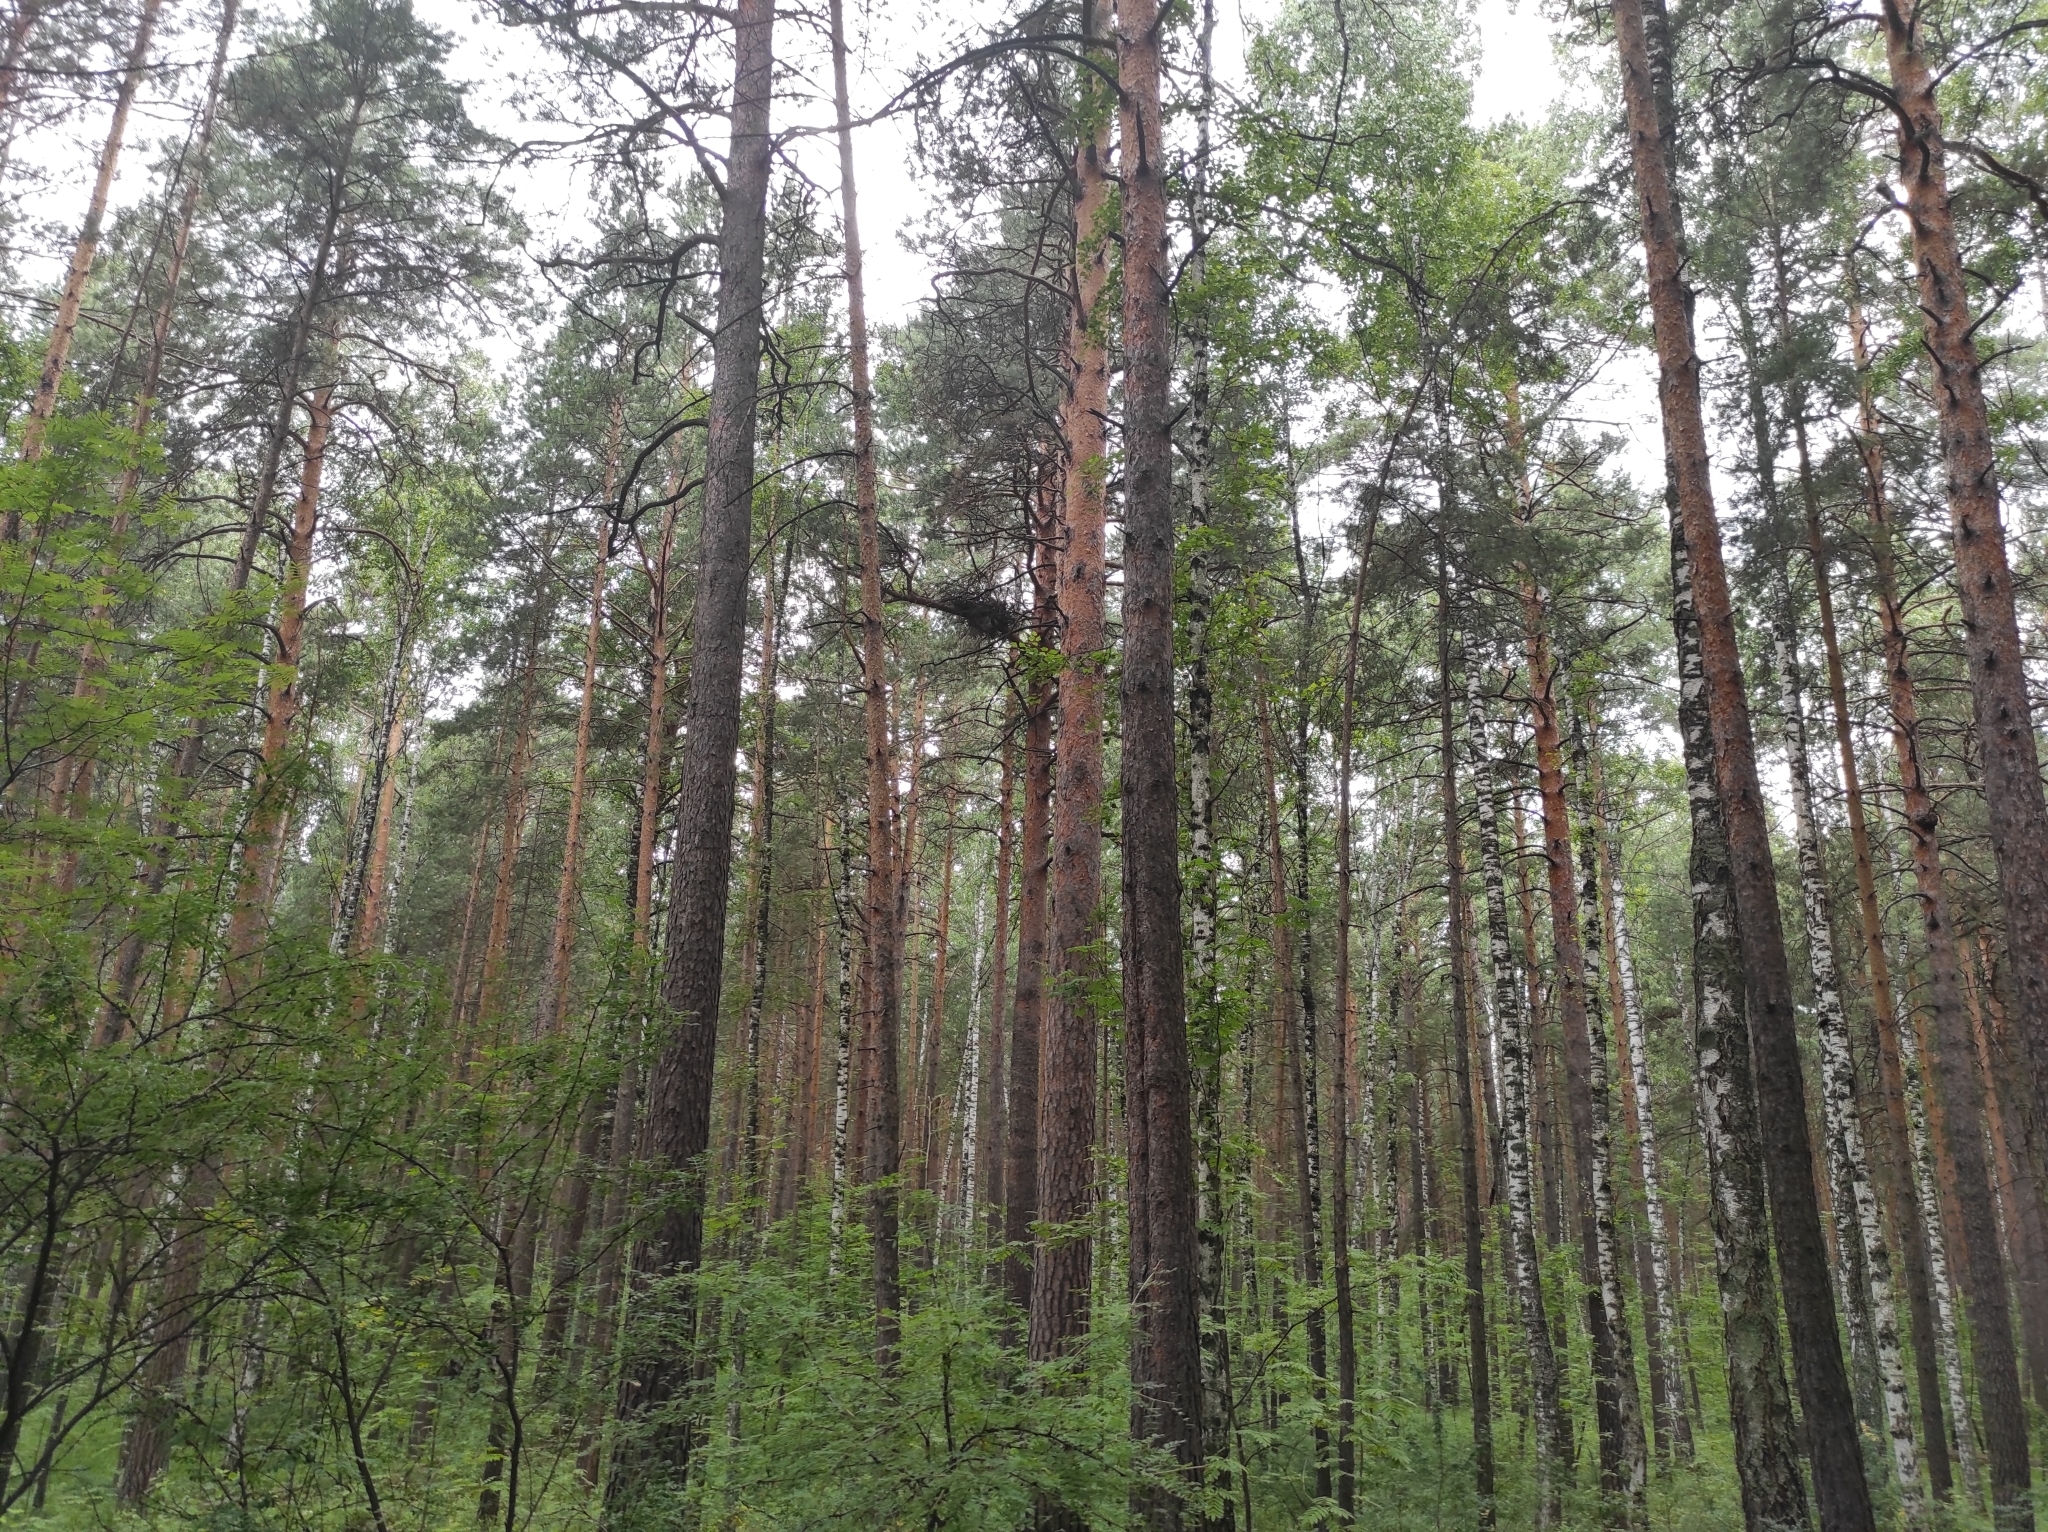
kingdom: Plantae
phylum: Tracheophyta
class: Pinopsida
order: Pinales
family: Pinaceae
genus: Pinus
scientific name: Pinus sylvestris
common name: Scots pine
